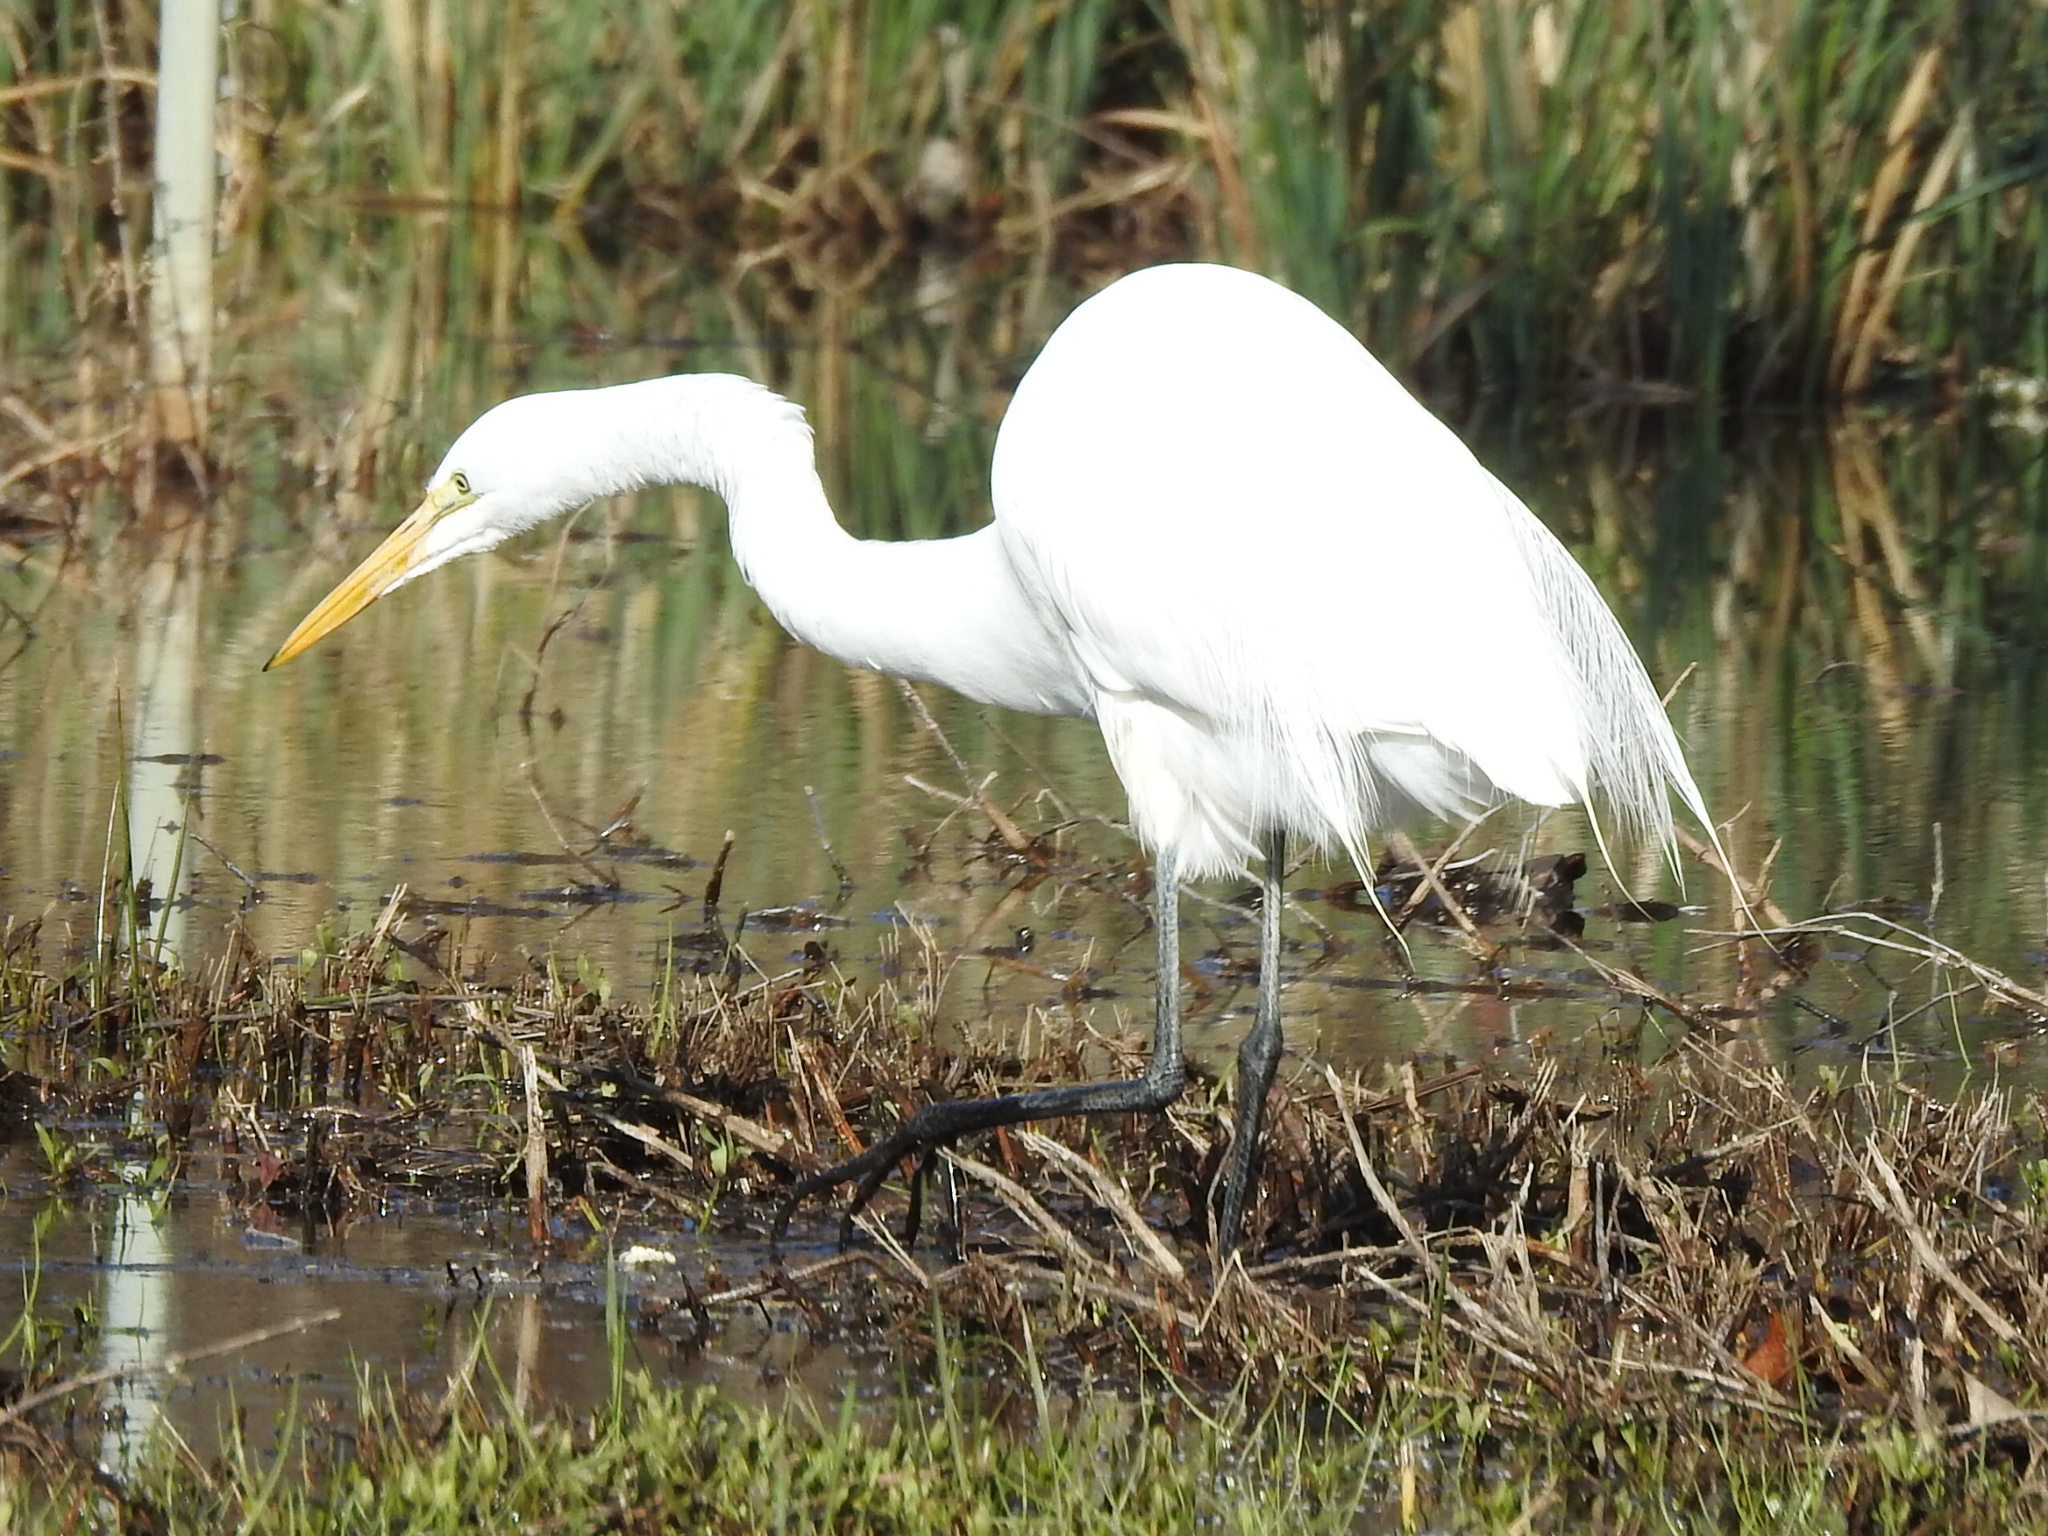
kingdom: Animalia
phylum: Chordata
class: Aves
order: Pelecaniformes
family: Ardeidae
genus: Ardea
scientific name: Ardea alba
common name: Great egret
